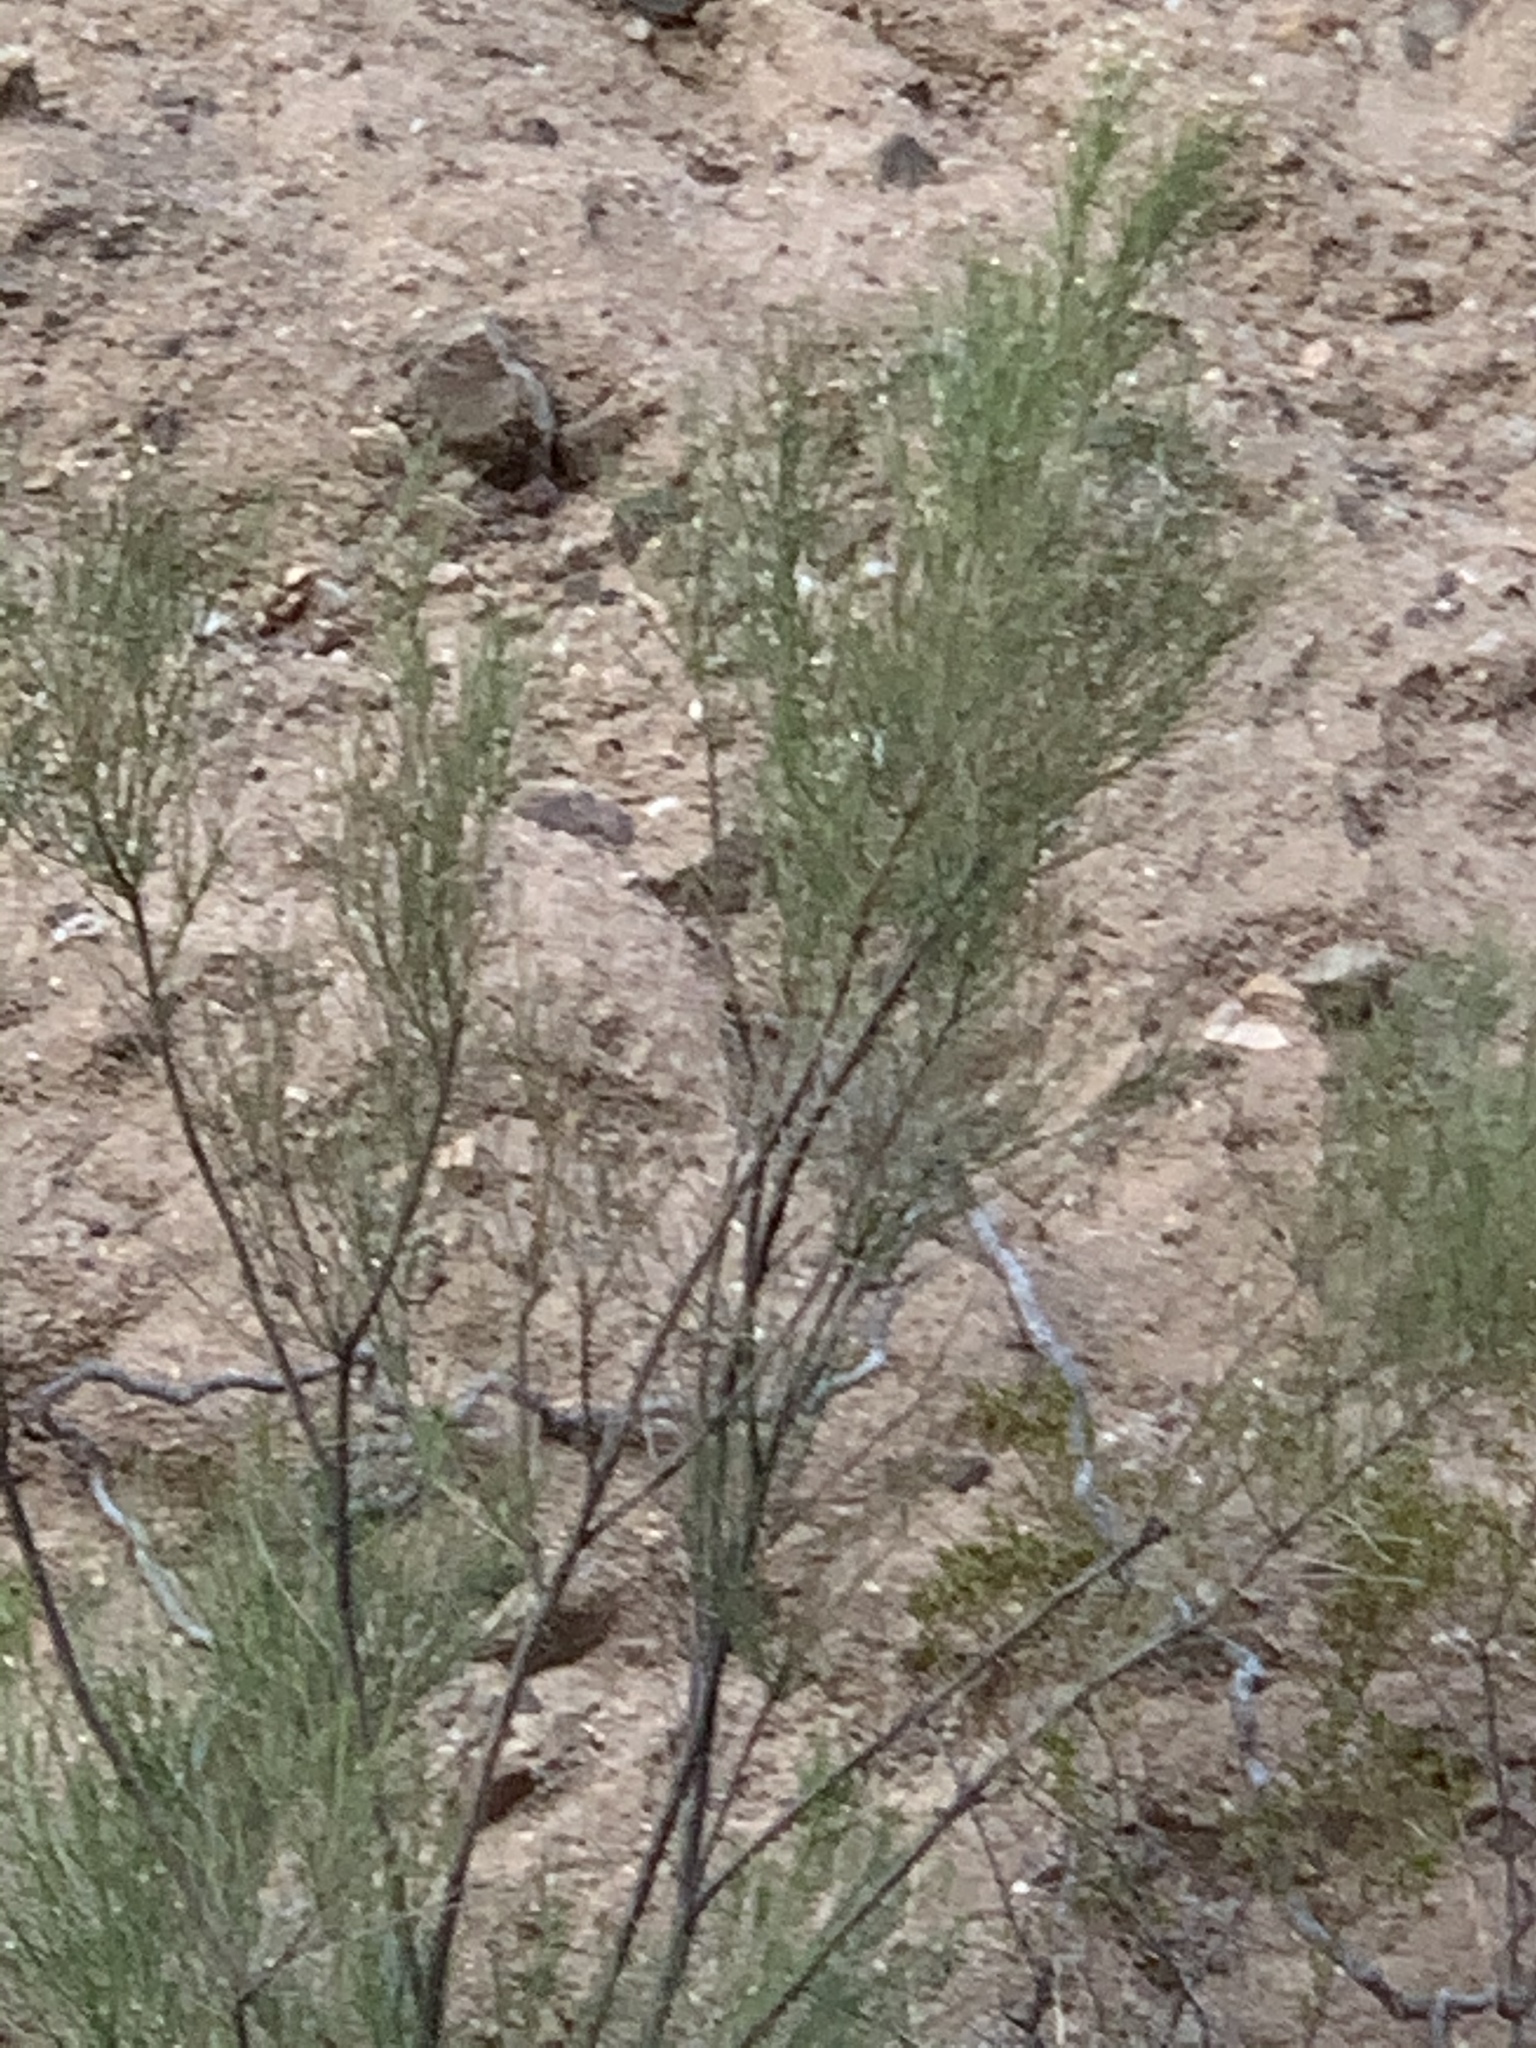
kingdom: Plantae
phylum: Tracheophyta
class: Magnoliopsida
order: Asterales
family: Asteraceae
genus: Baccharis
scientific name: Baccharis sarothroides
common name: Desert-broom
